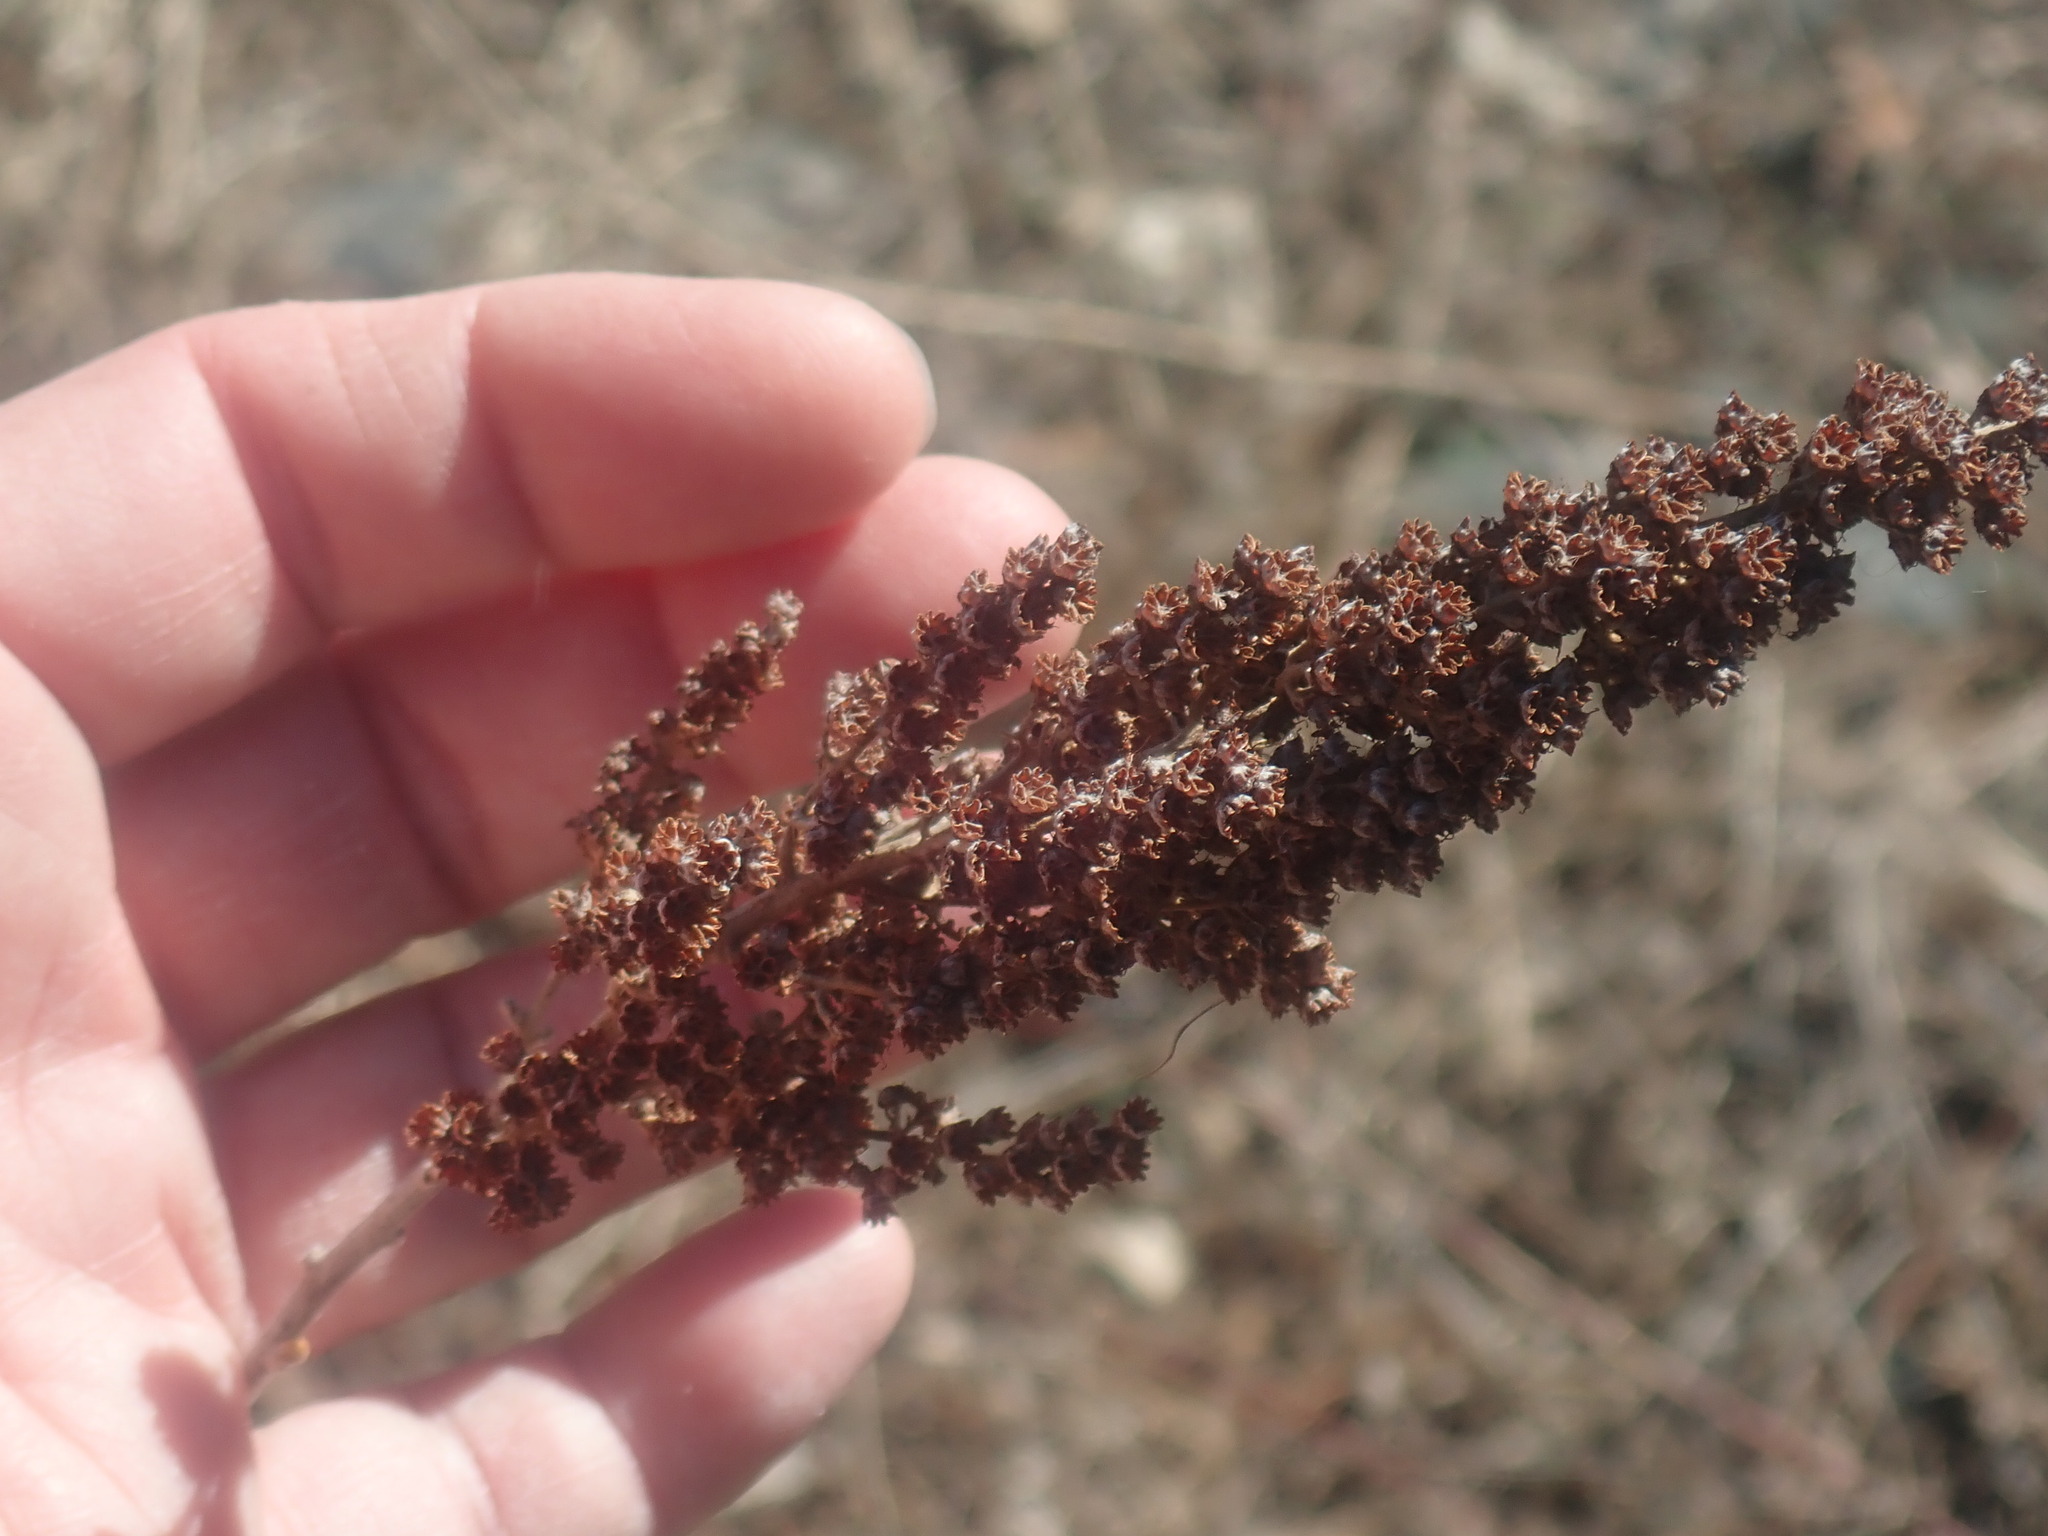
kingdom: Plantae
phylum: Tracheophyta
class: Magnoliopsida
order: Rosales
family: Rosaceae
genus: Spiraea
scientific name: Spiraea tomentosa
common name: Hardhack
